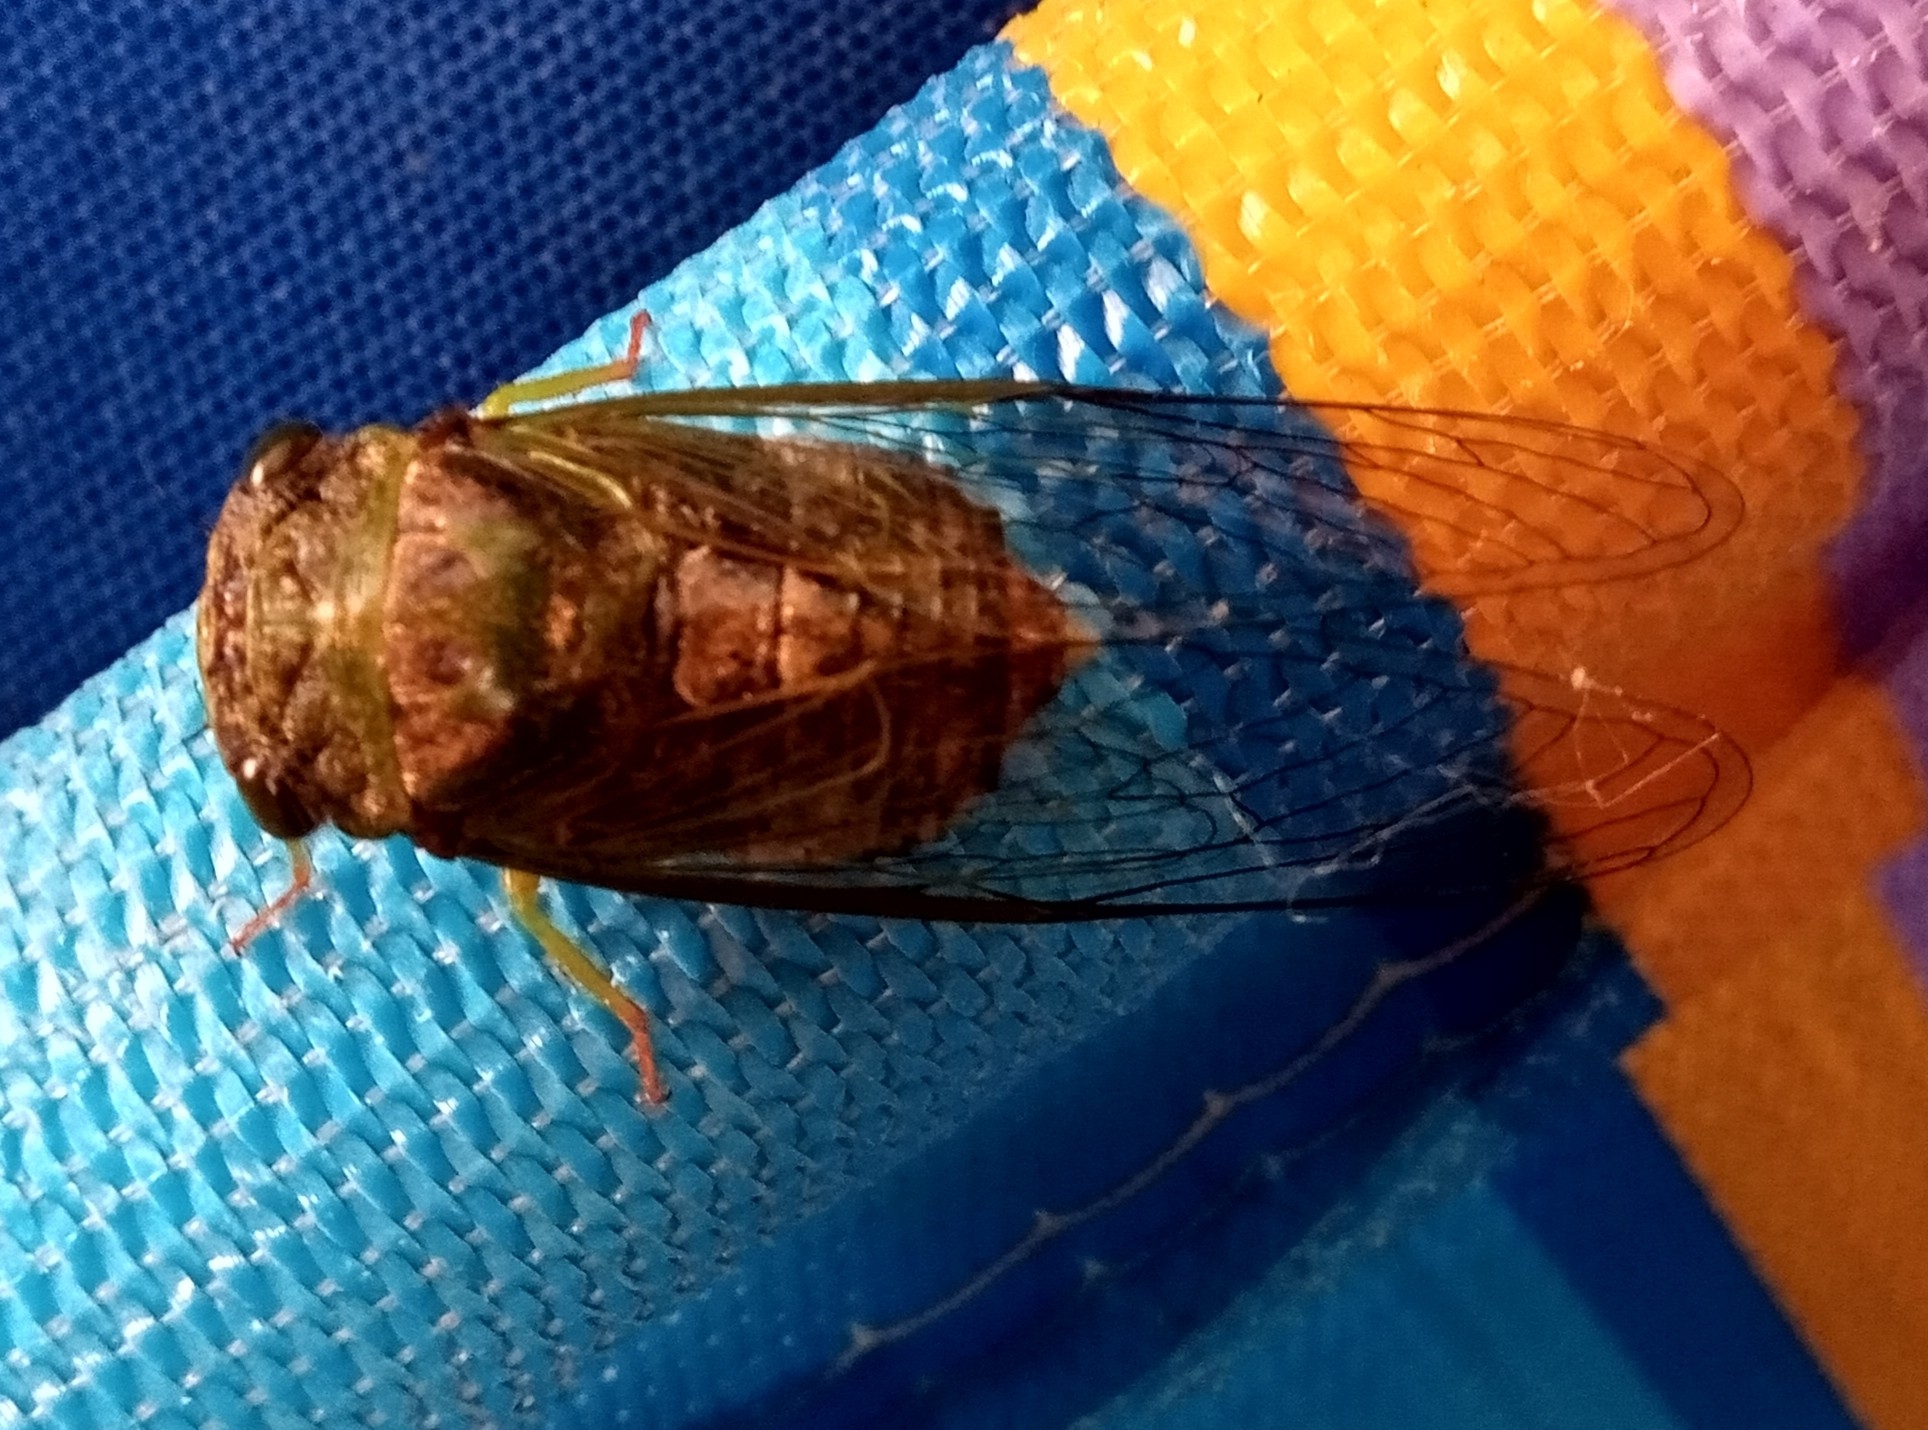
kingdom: Animalia
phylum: Arthropoda
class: Insecta
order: Hemiptera
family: Cicadidae
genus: Acanthoventris
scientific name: Acanthoventris drewseni
